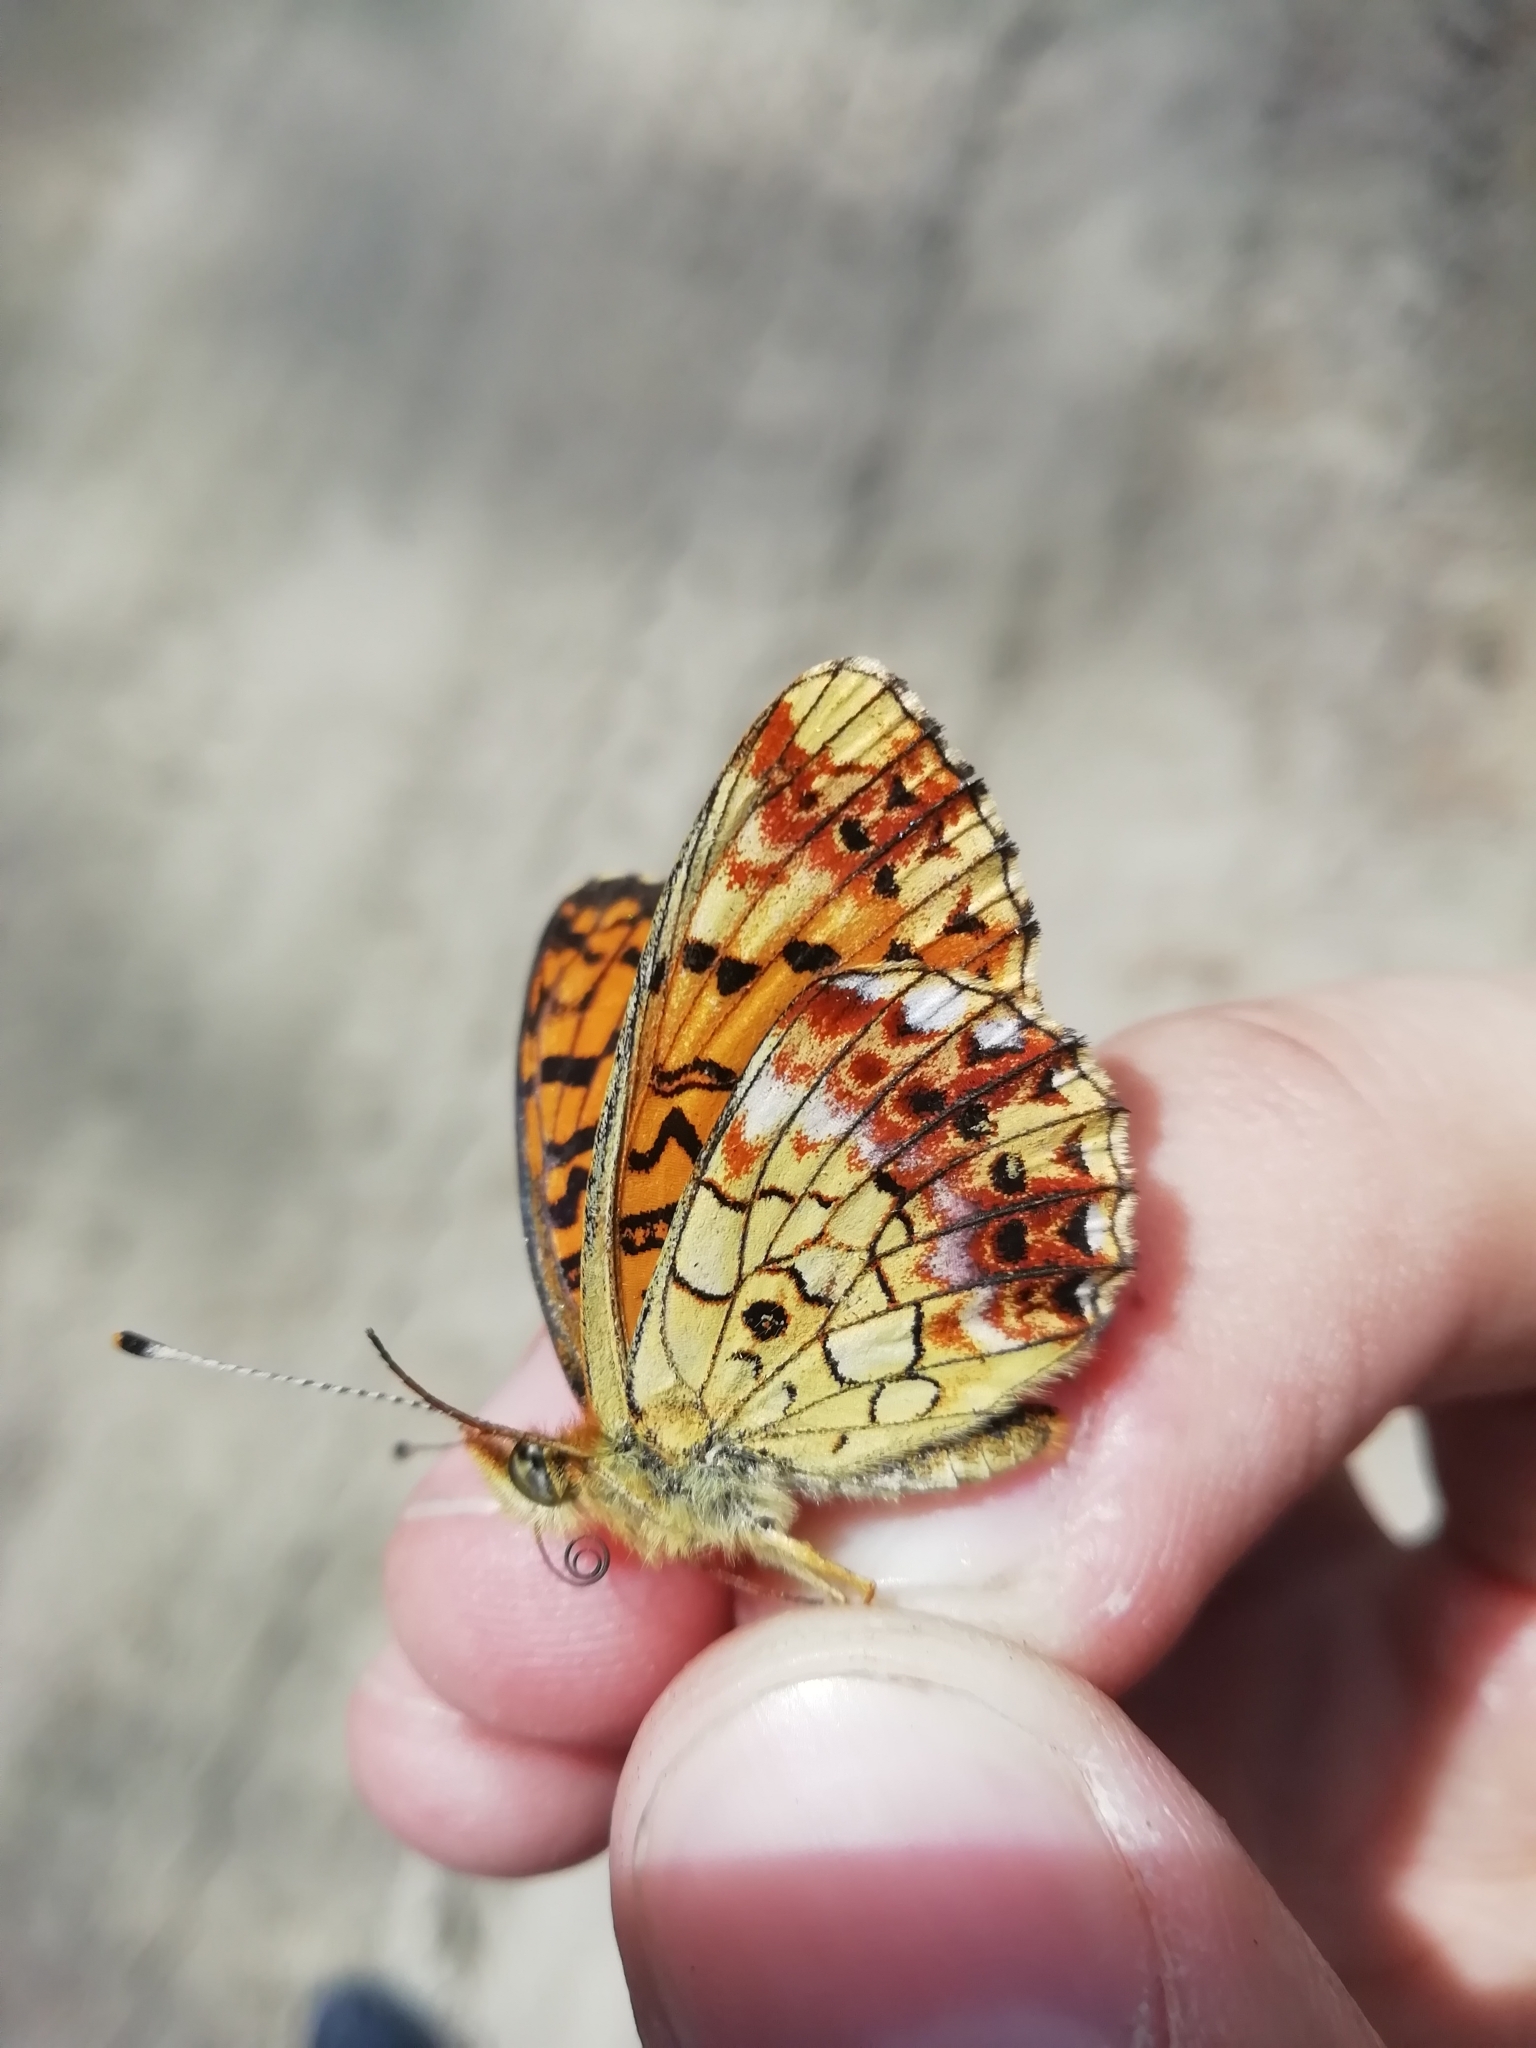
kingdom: Animalia
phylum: Arthropoda
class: Insecta
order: Lepidoptera
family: Nymphalidae
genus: Clossiana
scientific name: Clossiana selenis
